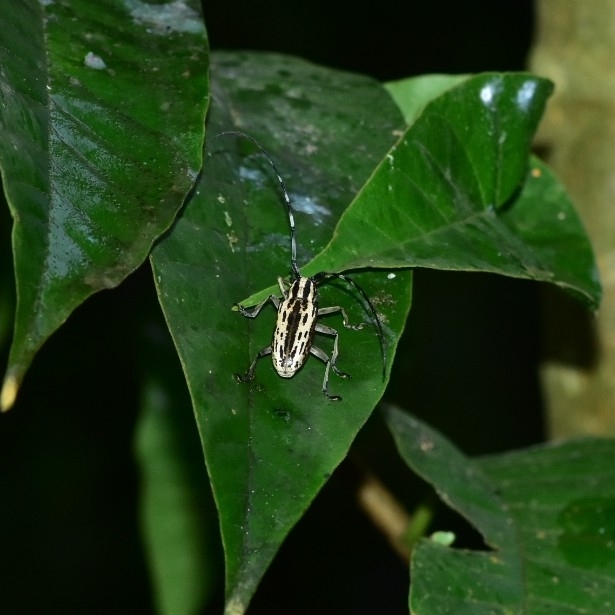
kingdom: Animalia
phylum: Arthropoda
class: Insecta
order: Coleoptera
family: Cerambycidae
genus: Epepeotes
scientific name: Epepeotes uncinatus
